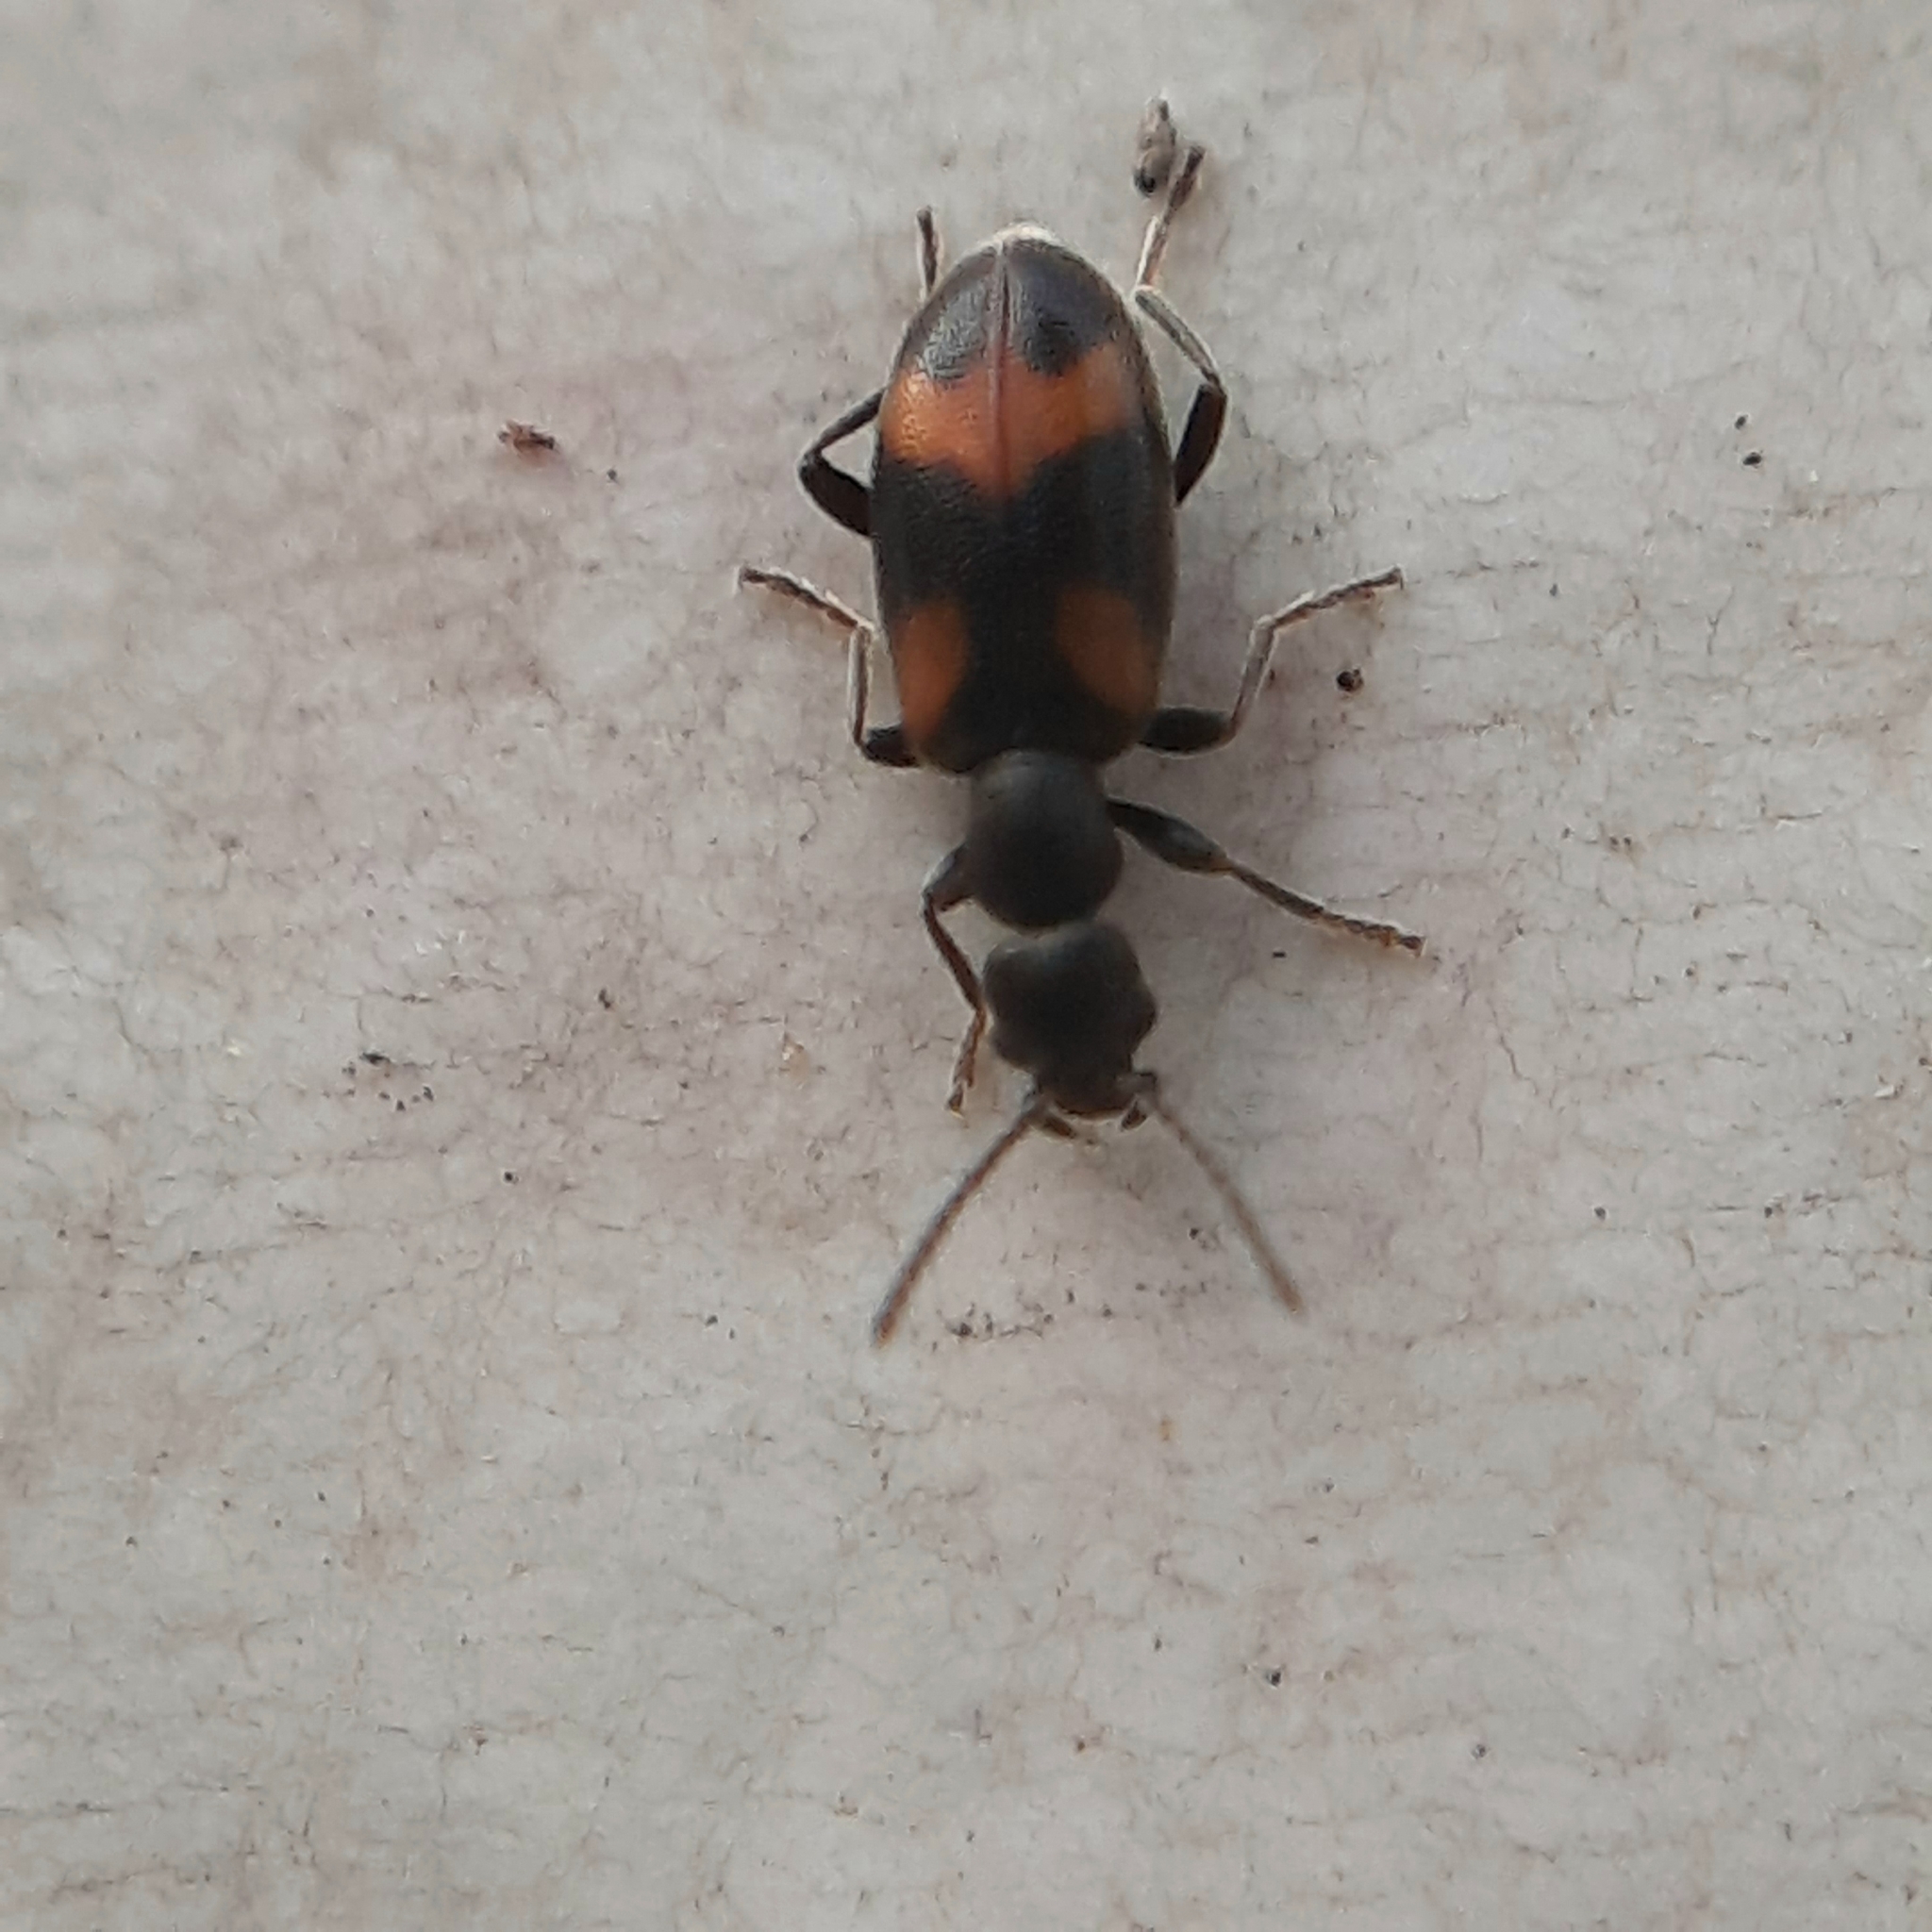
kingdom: Animalia
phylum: Arthropoda
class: Insecta
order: Coleoptera
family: Anthicidae
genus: Anthicus
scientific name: Anthicus antherinus
